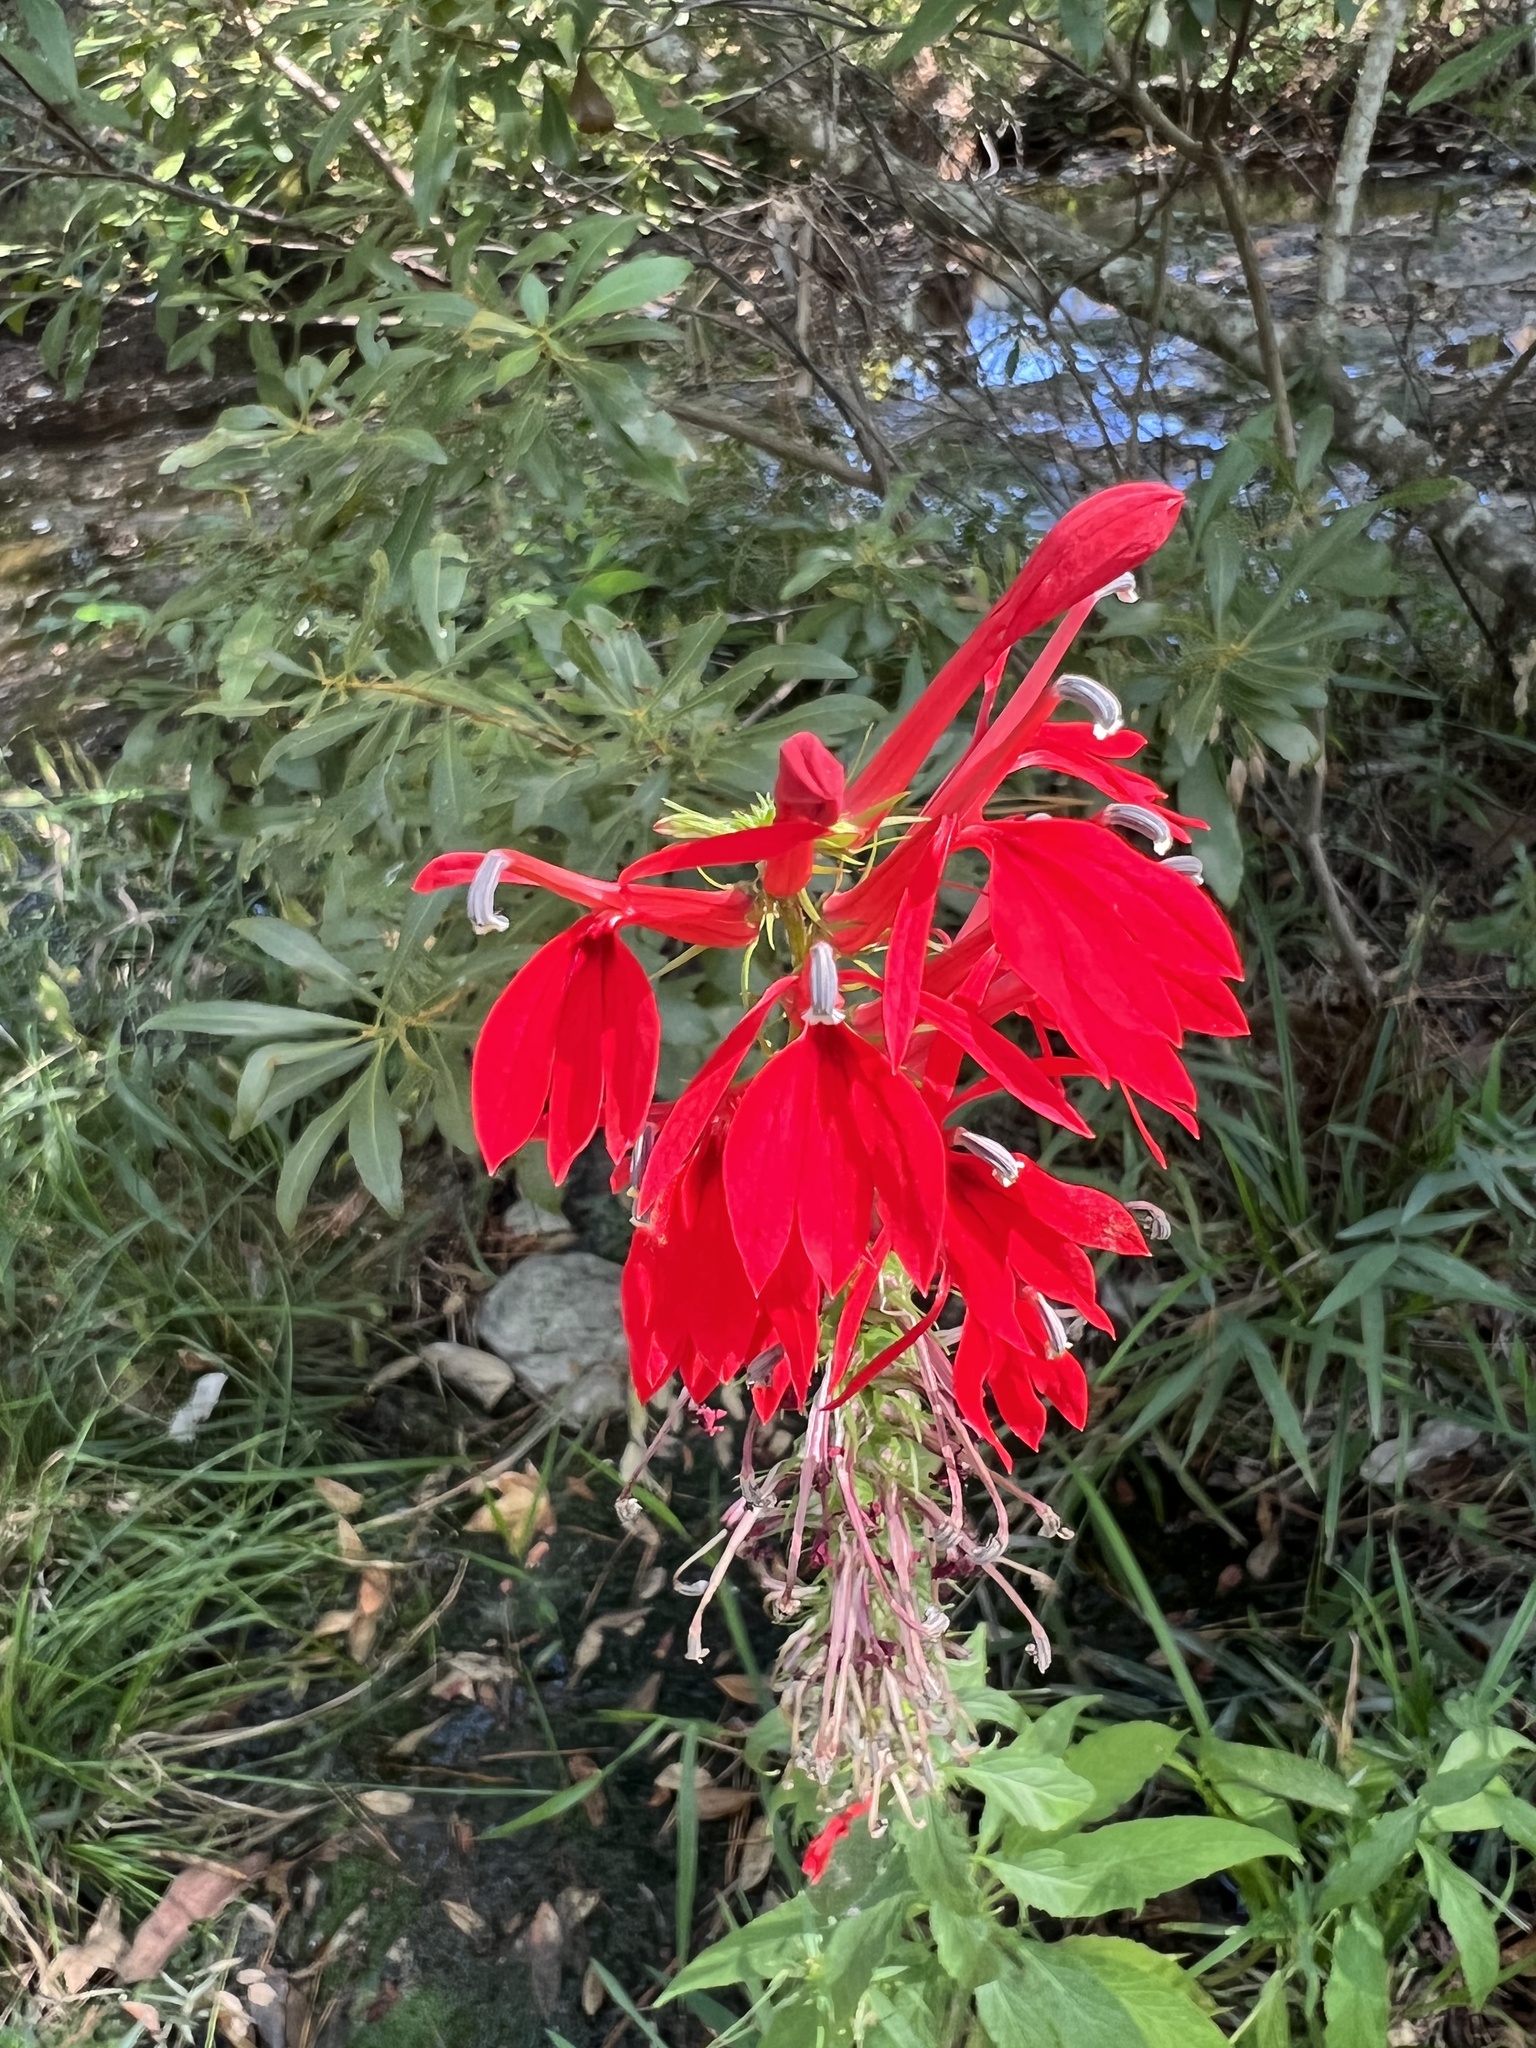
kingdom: Plantae
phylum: Tracheophyta
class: Magnoliopsida
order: Asterales
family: Campanulaceae
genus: Lobelia
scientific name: Lobelia cardinalis
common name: Cardinal flower
